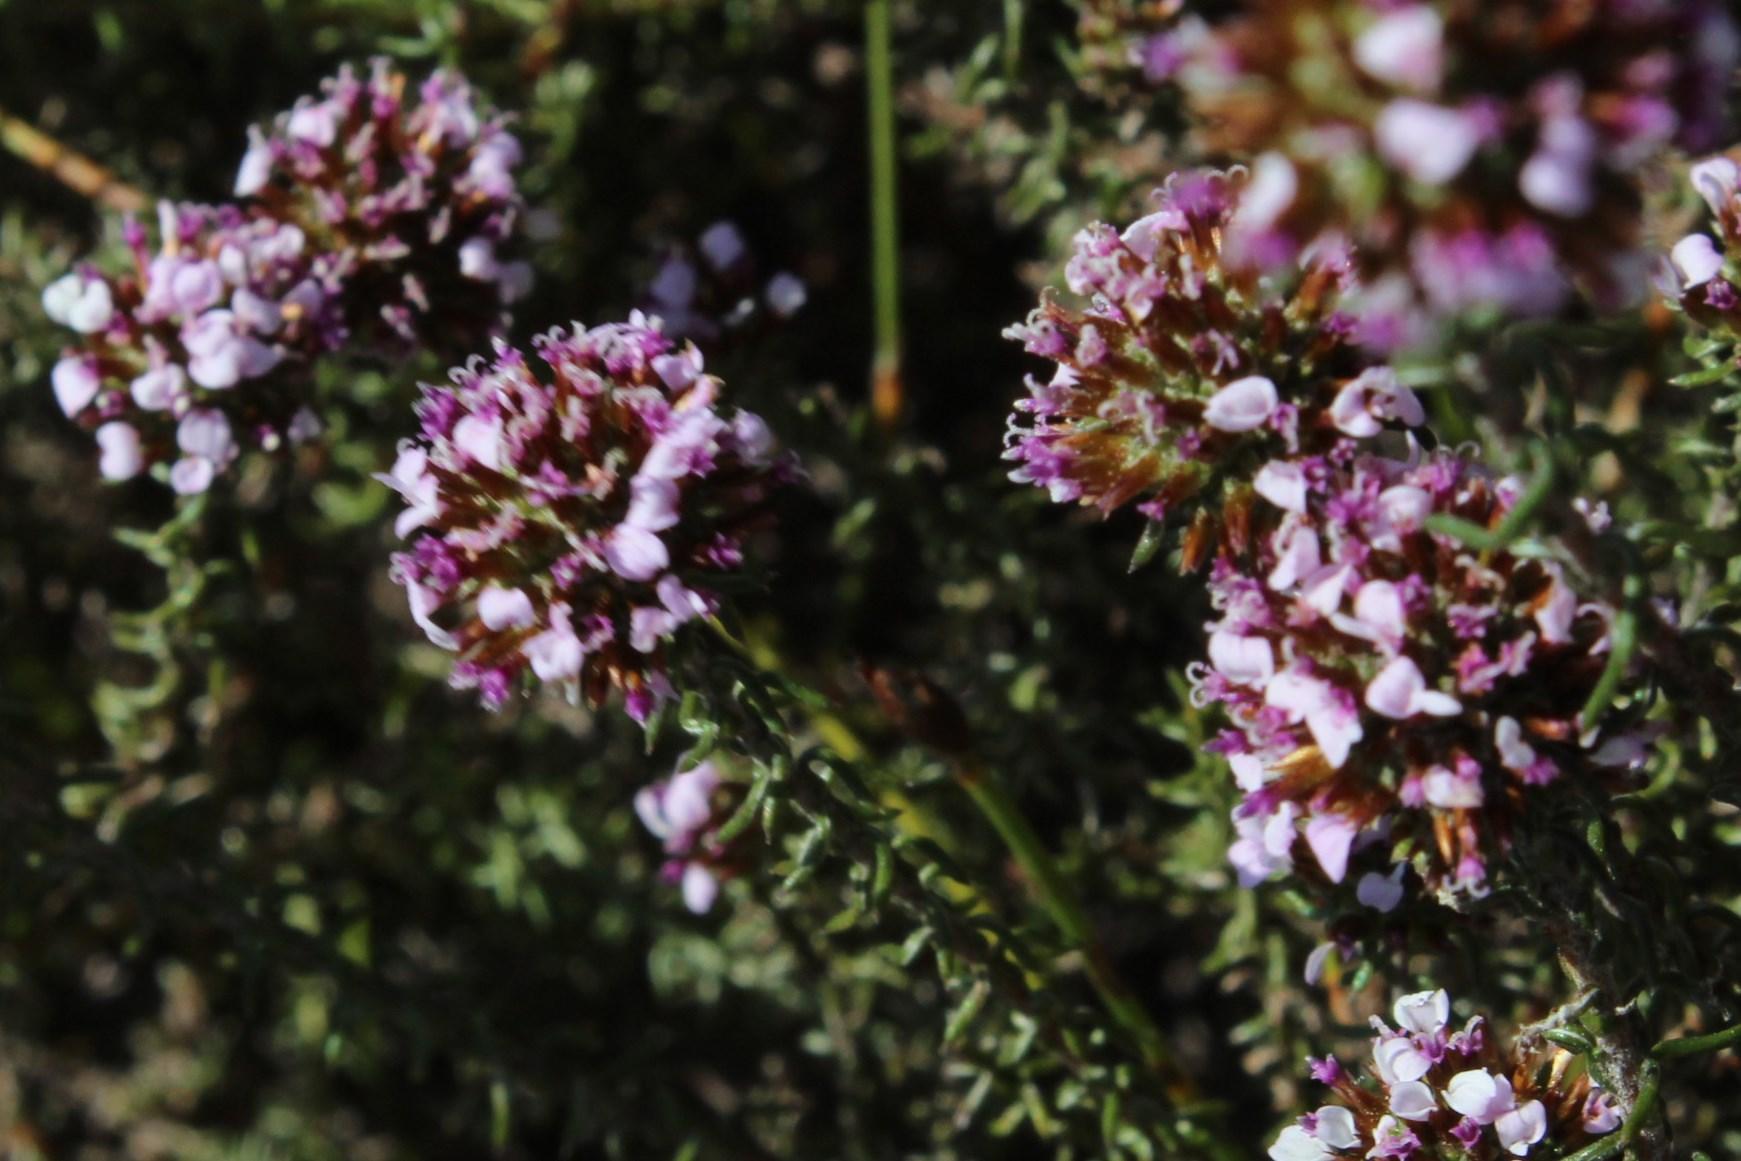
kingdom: Plantae
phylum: Tracheophyta
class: Magnoliopsida
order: Asterales
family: Asteraceae
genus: Disparago
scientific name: Disparago ericoides
